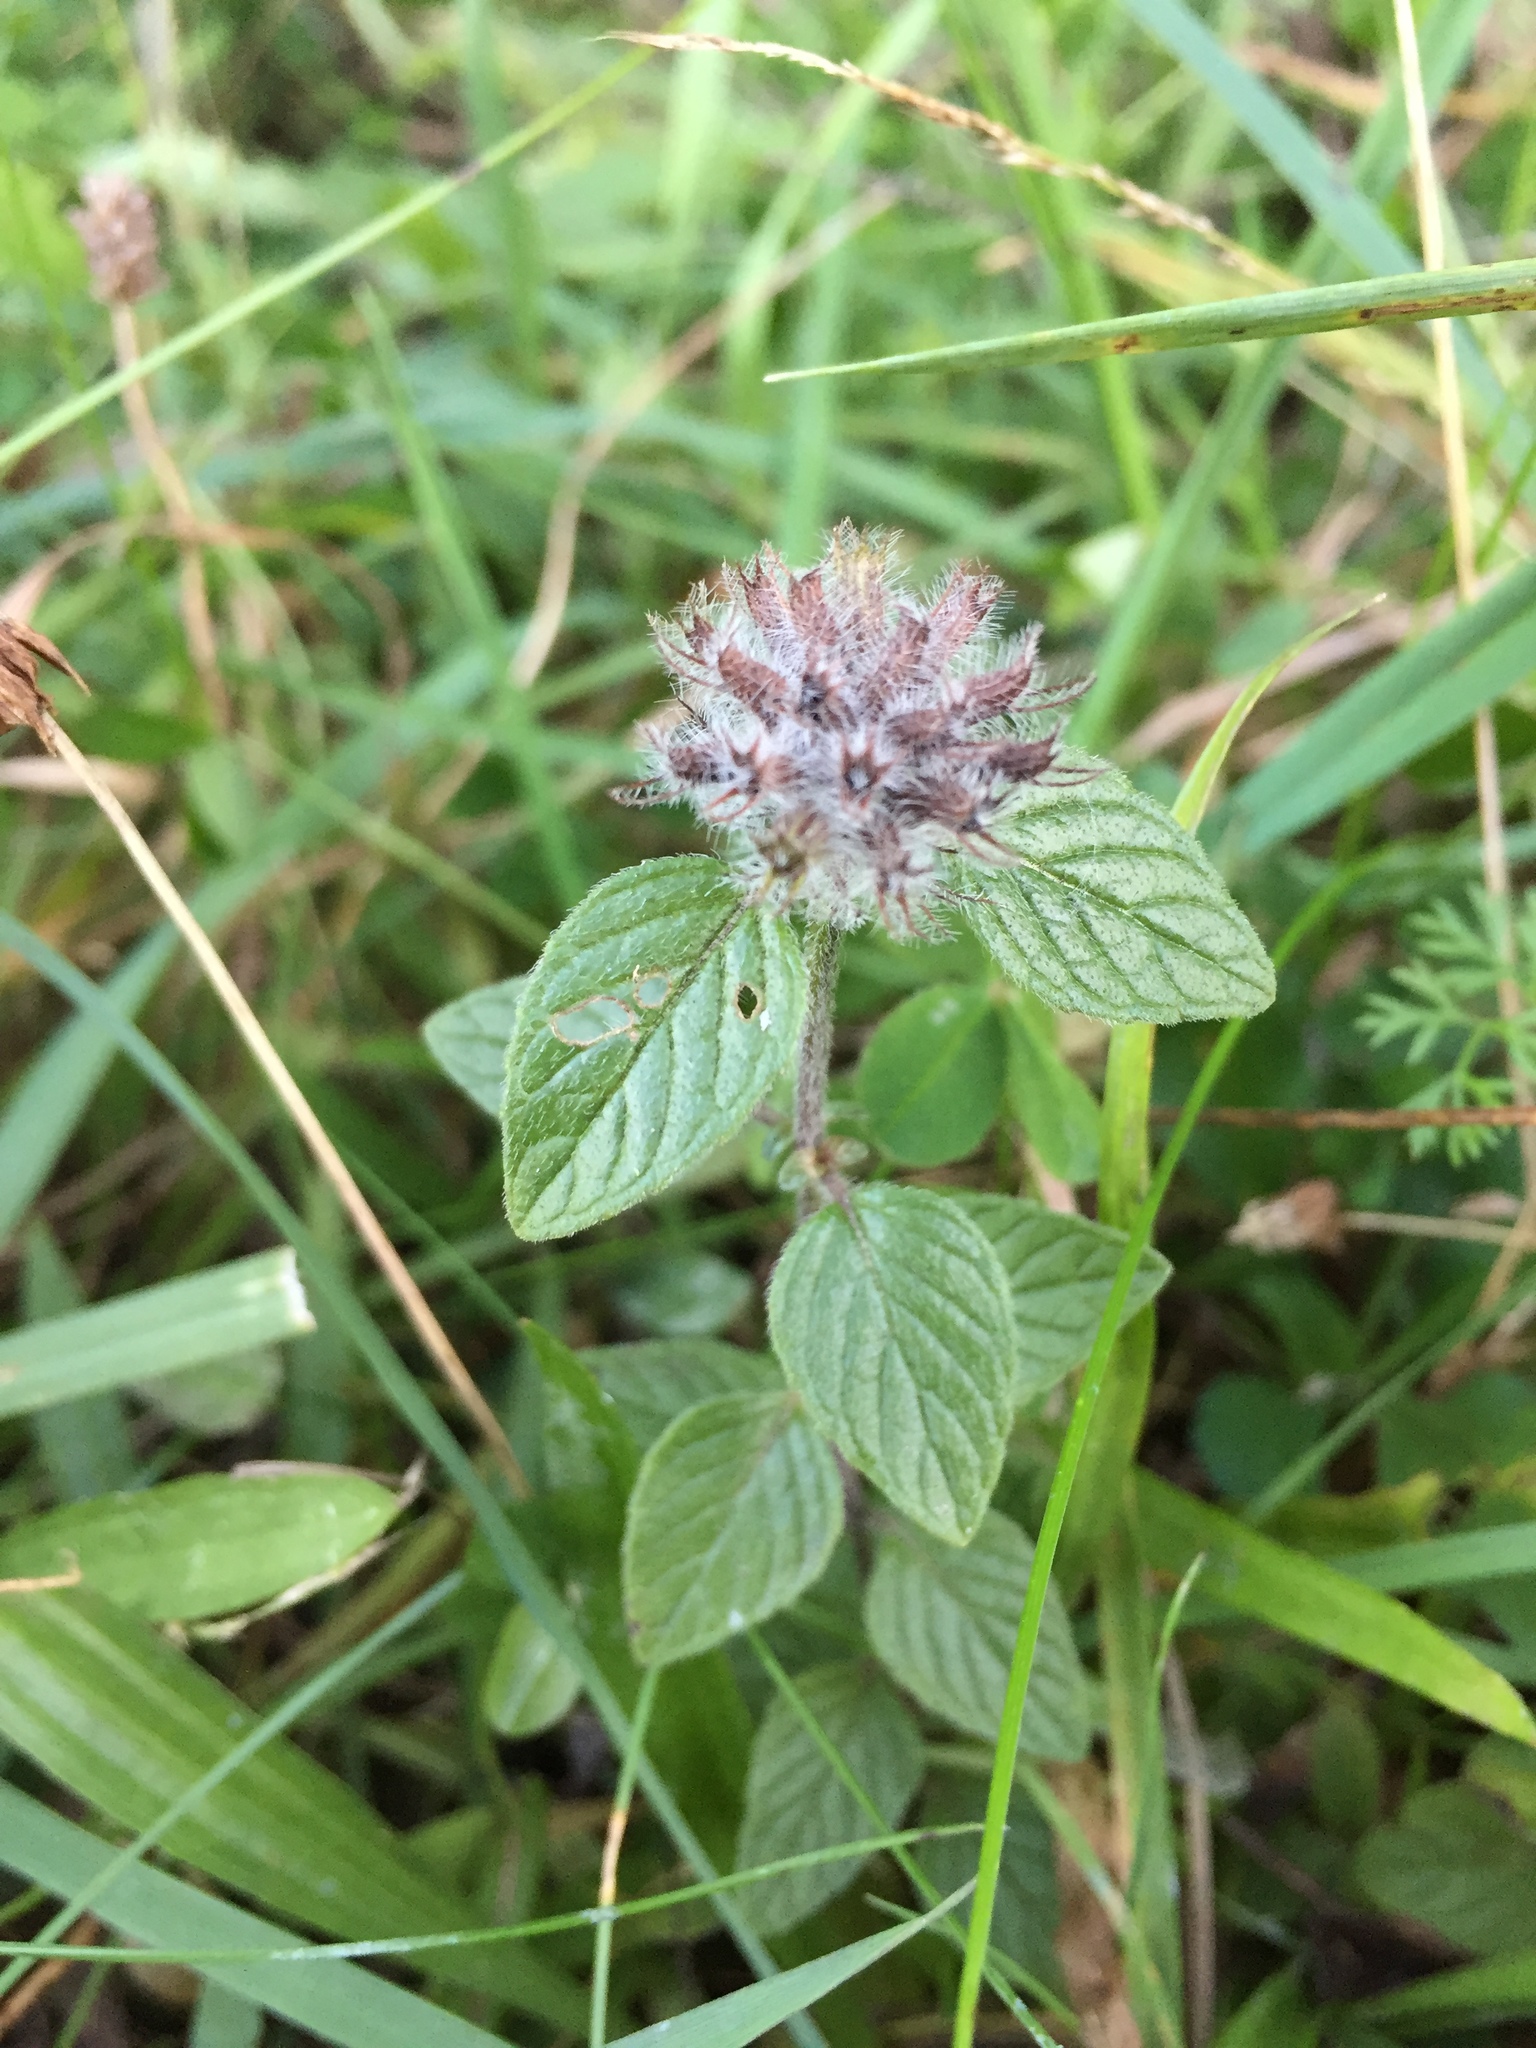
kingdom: Plantae
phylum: Tracheophyta
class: Magnoliopsida
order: Lamiales
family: Lamiaceae
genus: Clinopodium
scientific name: Clinopodium vulgare
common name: Wild basil
